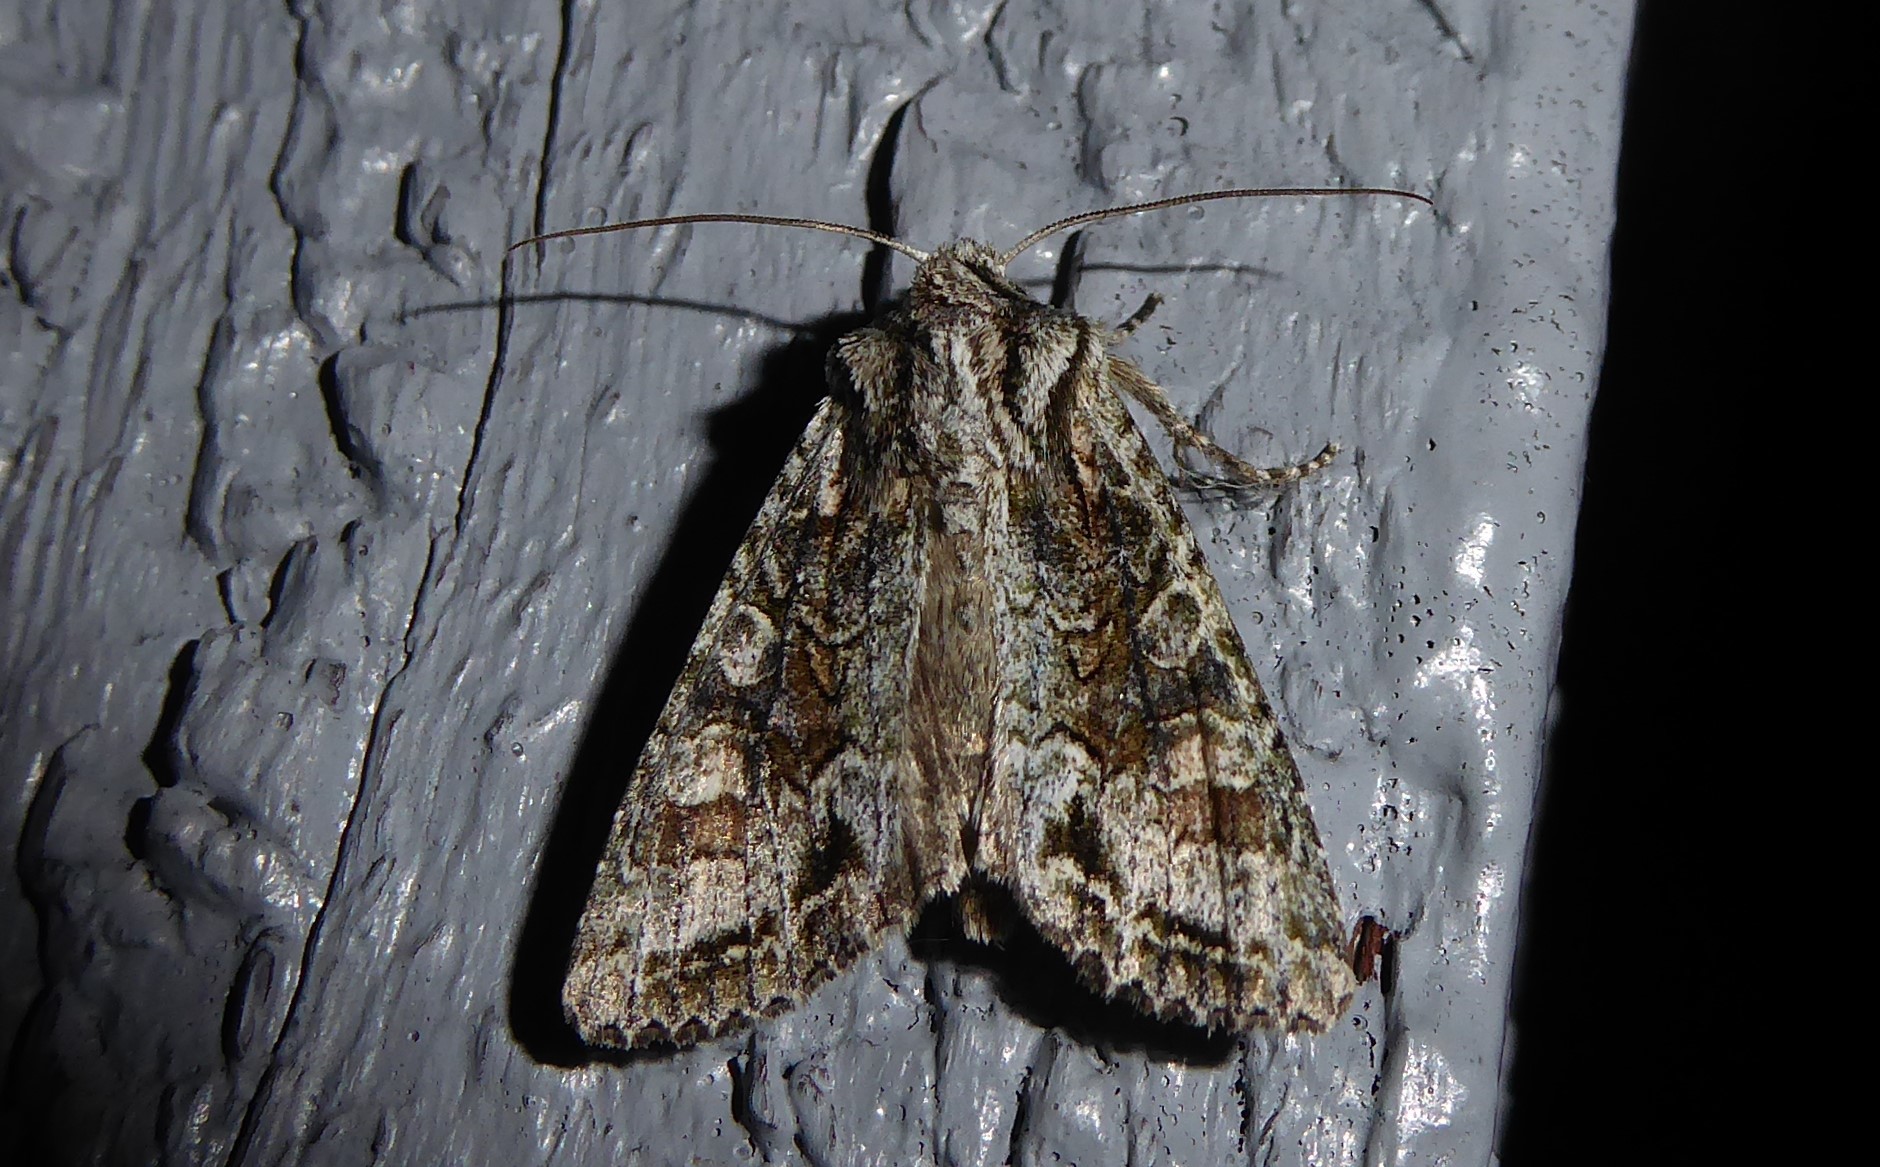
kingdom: Animalia
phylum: Arthropoda
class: Insecta
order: Lepidoptera
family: Noctuidae
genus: Ichneutica
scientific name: Ichneutica mutans
